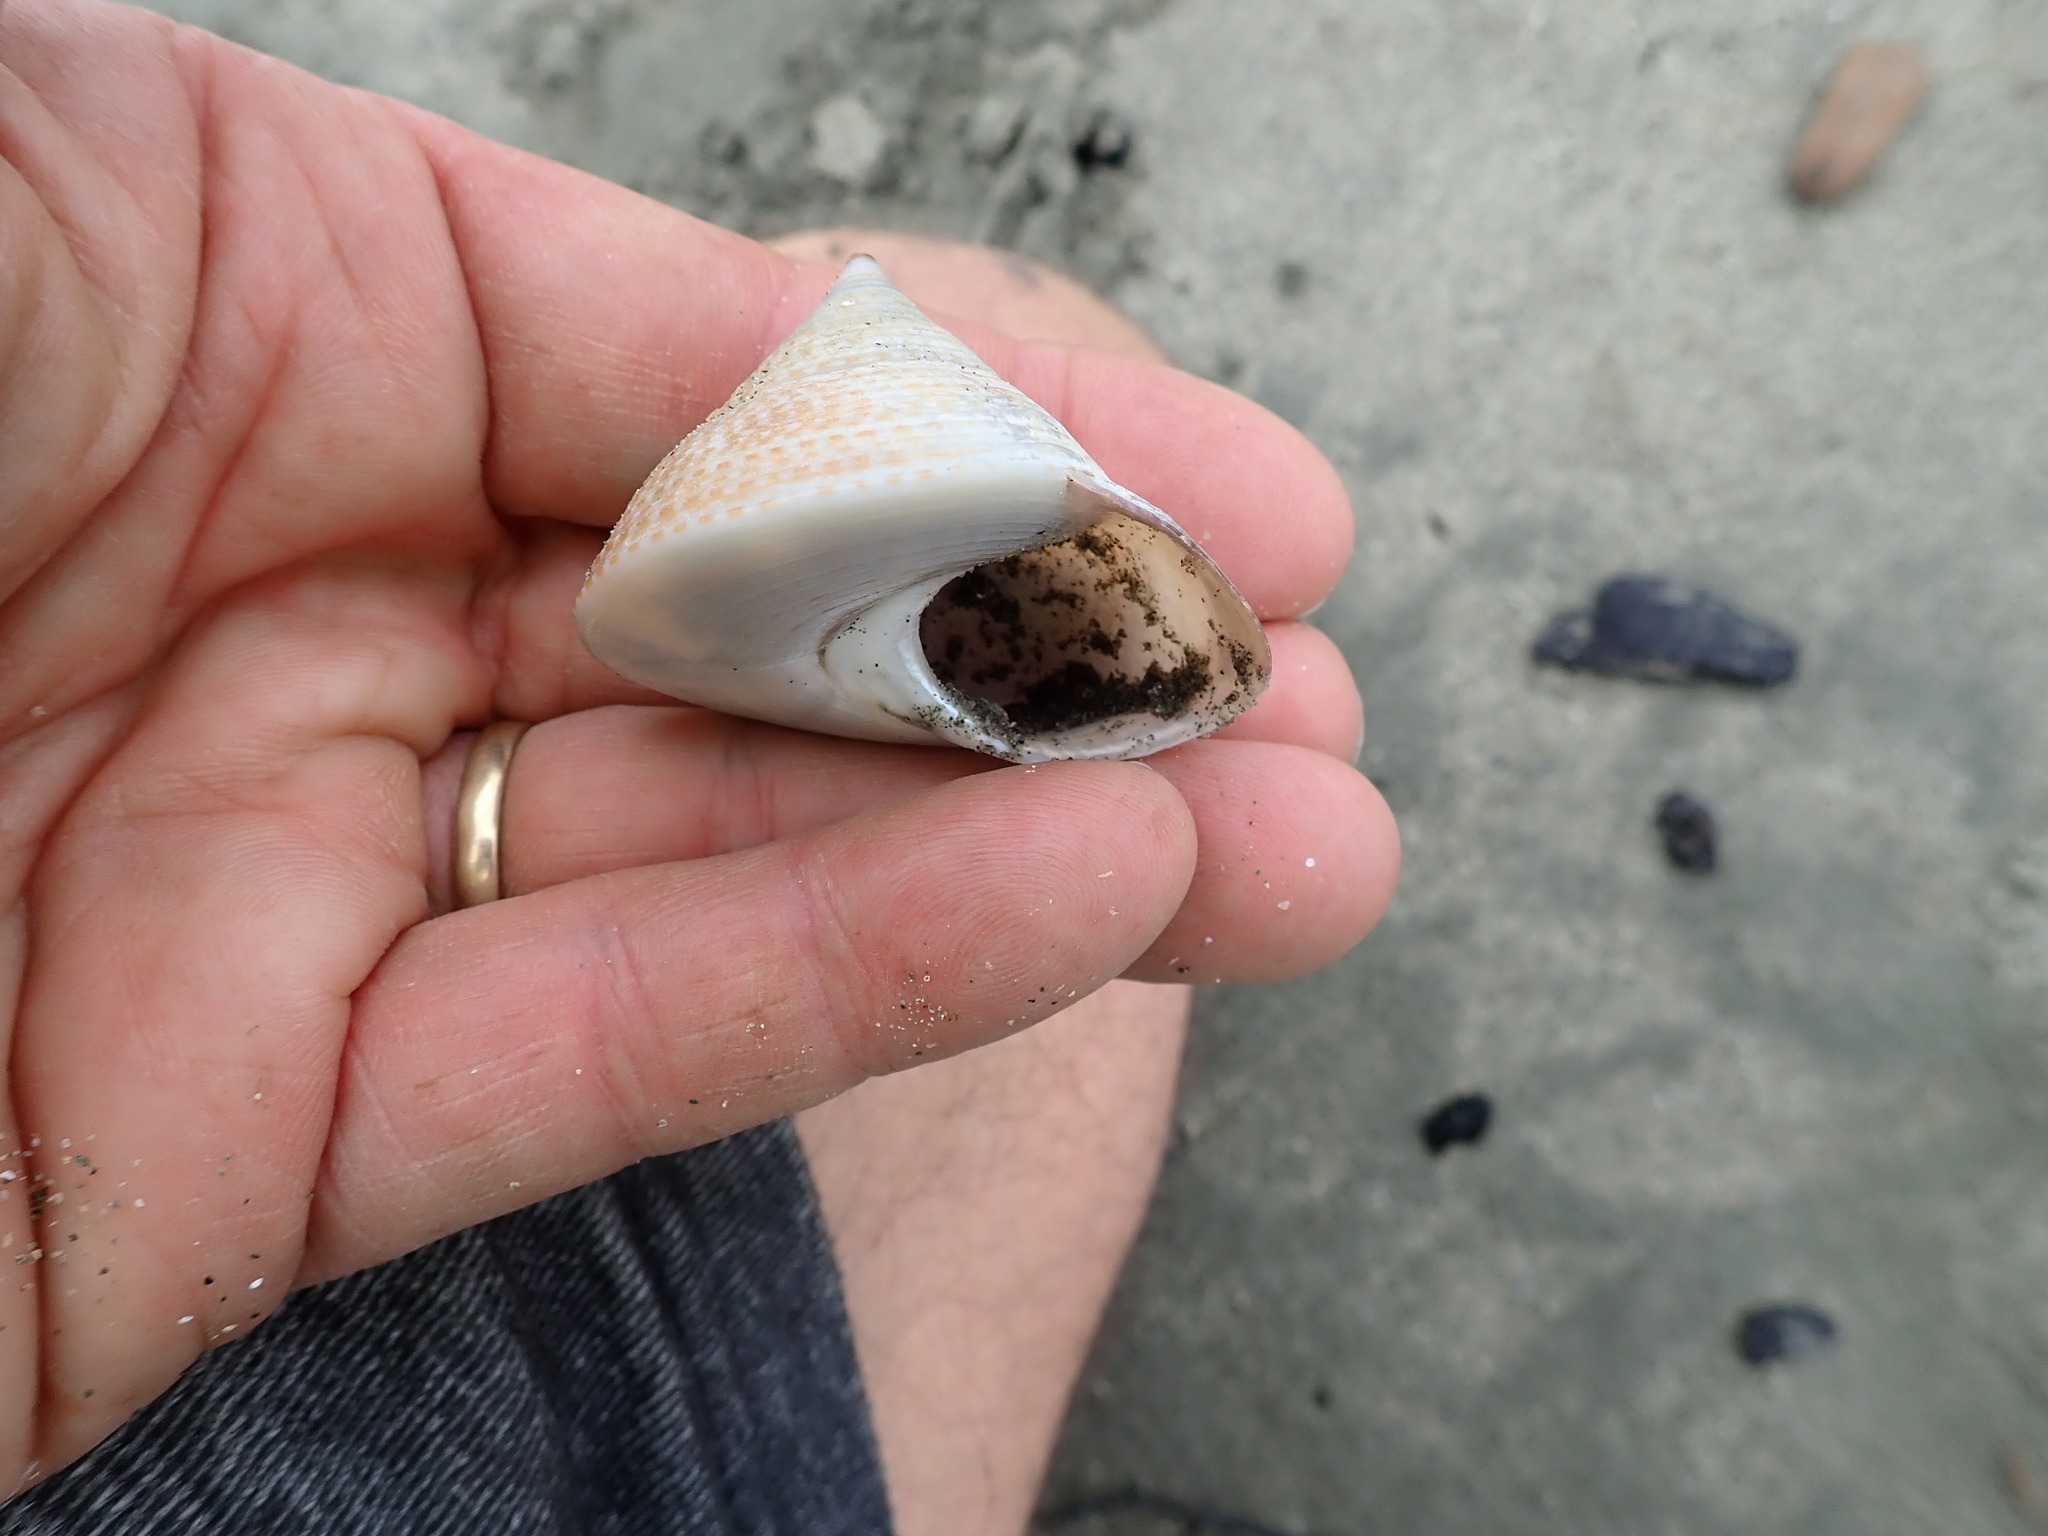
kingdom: Animalia
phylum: Mollusca
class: Gastropoda
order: Trochida
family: Calliostomatidae
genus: Maurea
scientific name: Maurea selecta
